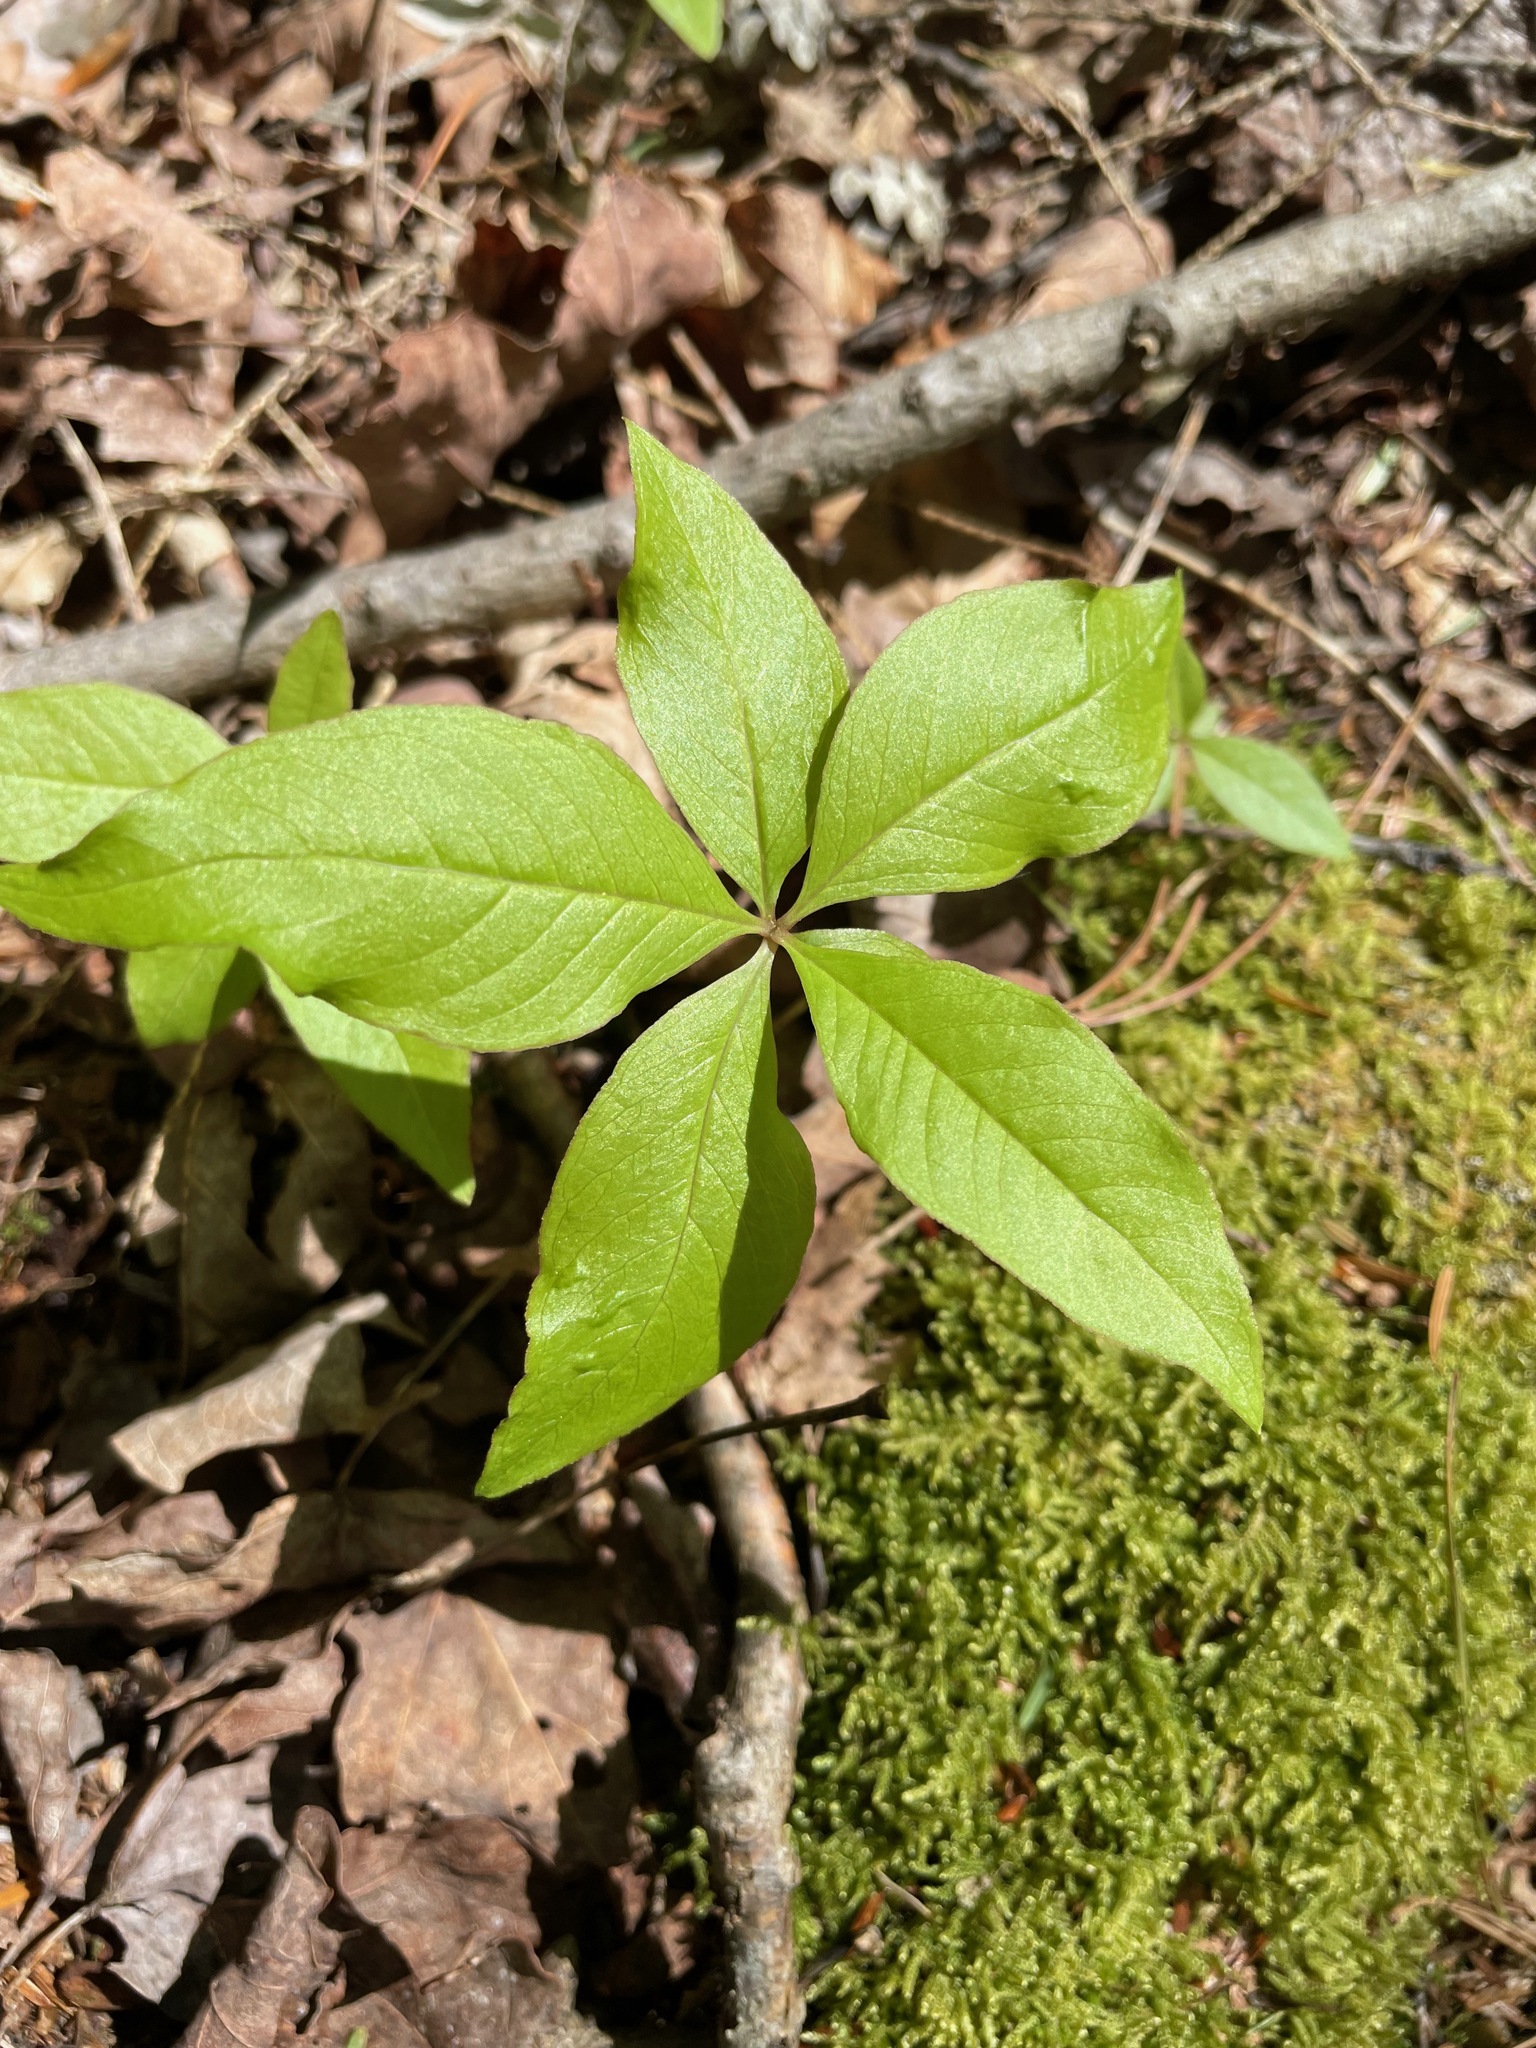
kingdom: Plantae
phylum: Tracheophyta
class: Magnoliopsida
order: Ericales
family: Primulaceae
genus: Lysimachia
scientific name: Lysimachia borealis
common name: American starflower
